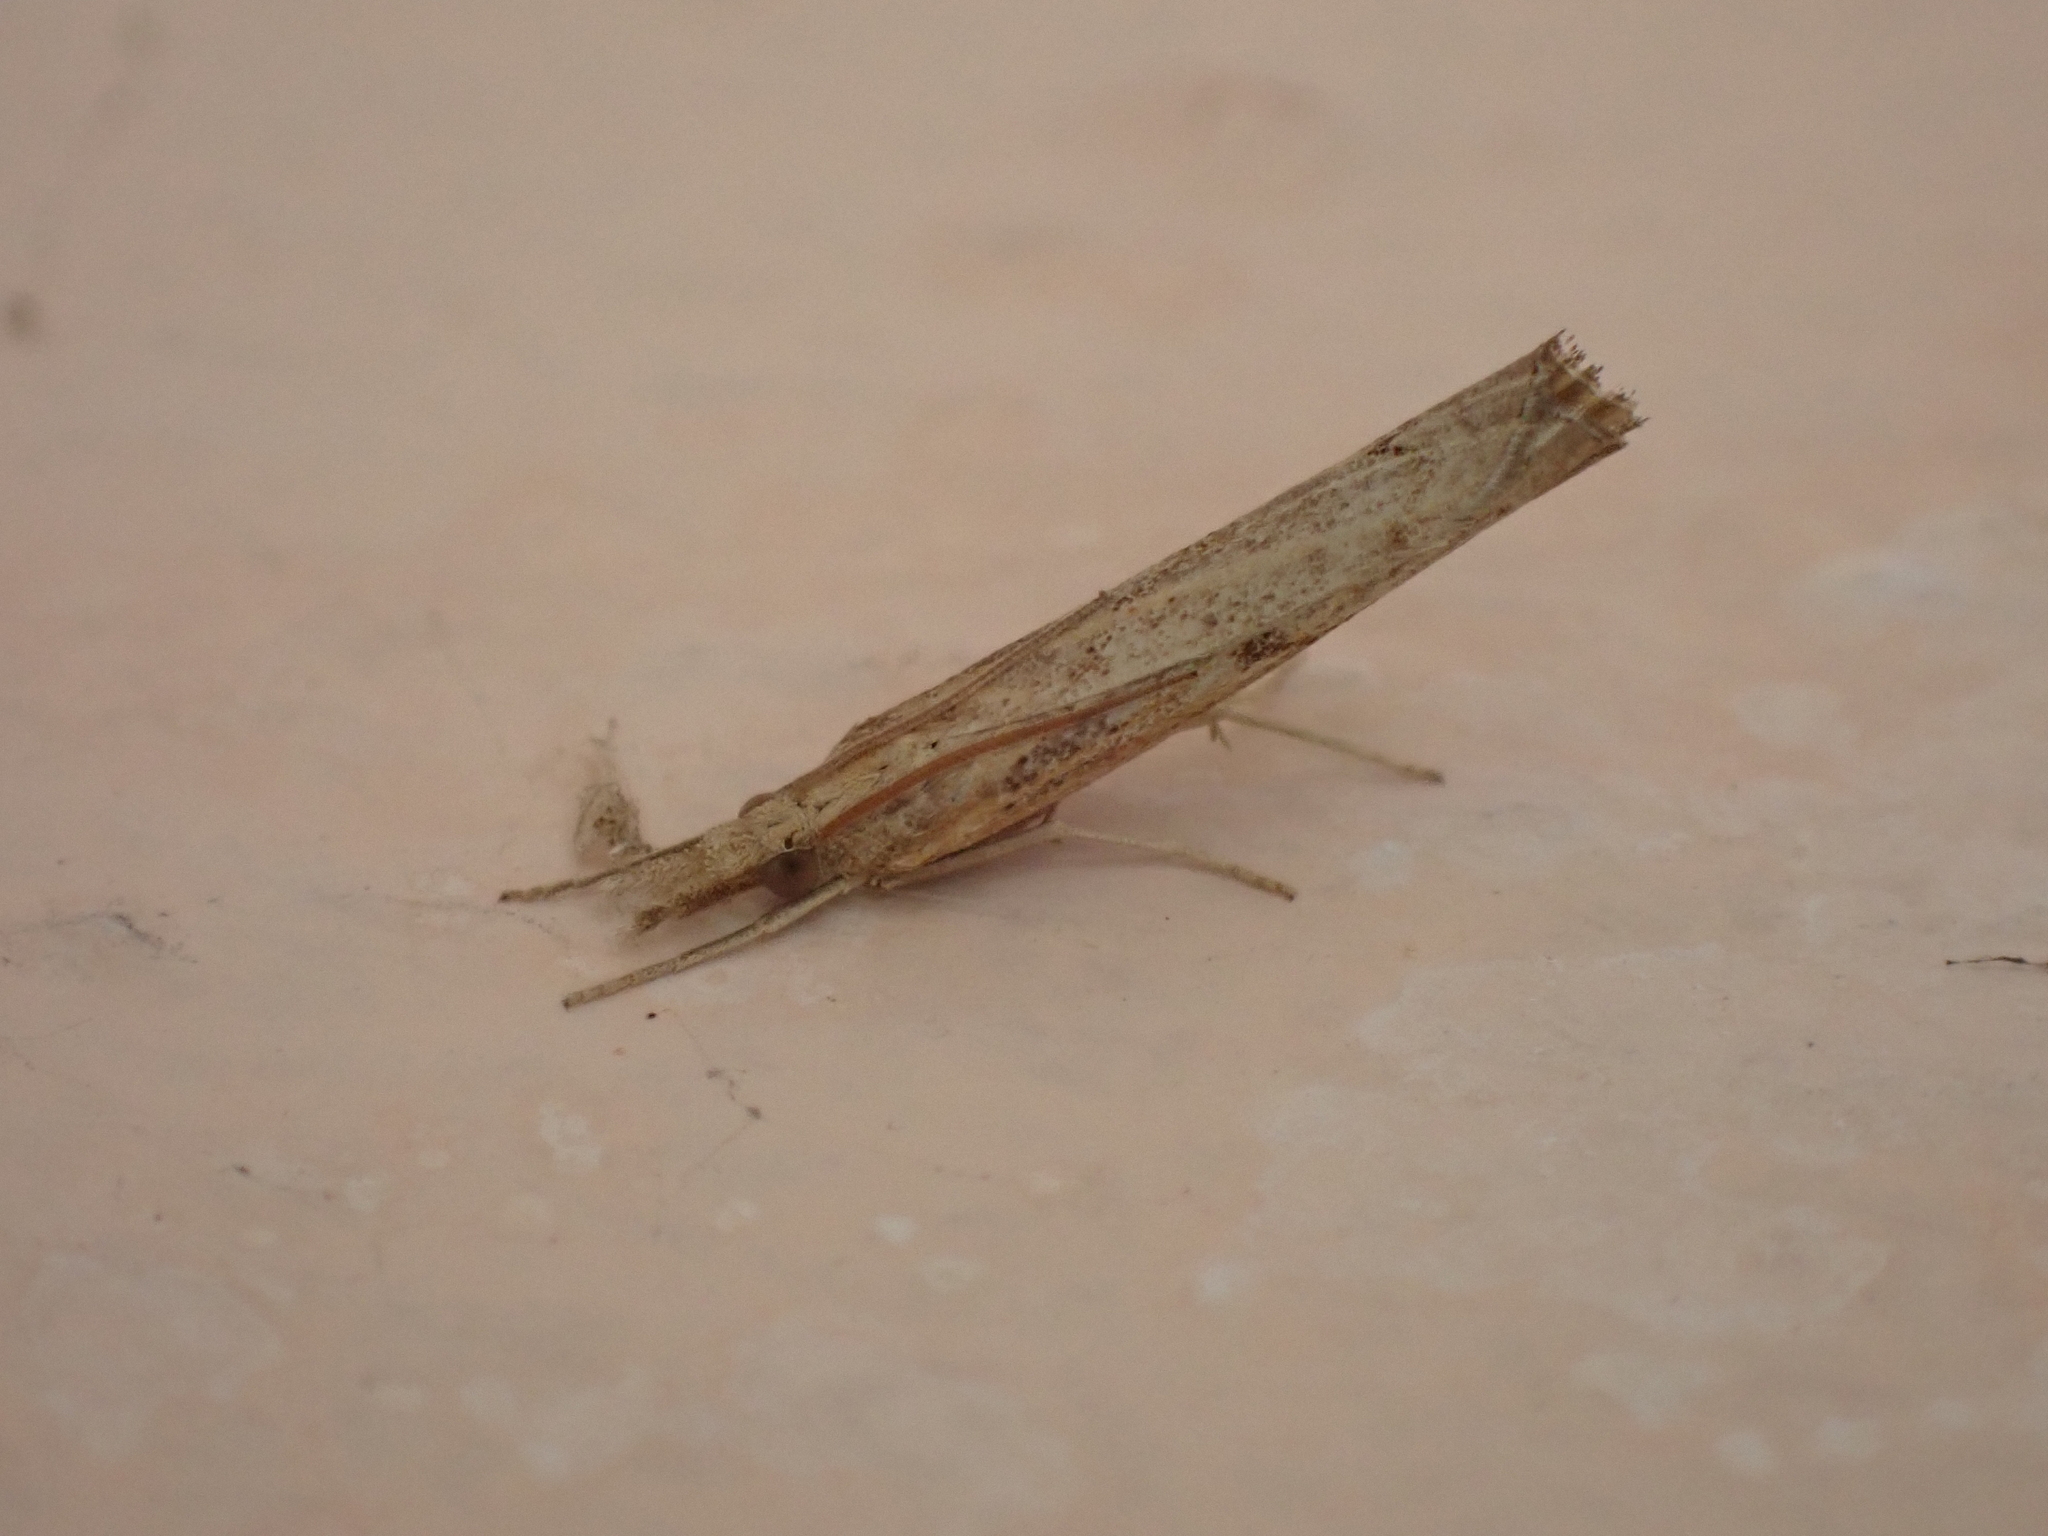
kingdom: Animalia
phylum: Arthropoda
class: Insecta
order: Lepidoptera
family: Crambidae
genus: Pediasia
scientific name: Pediasia contaminella
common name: Waste grass-veneer
